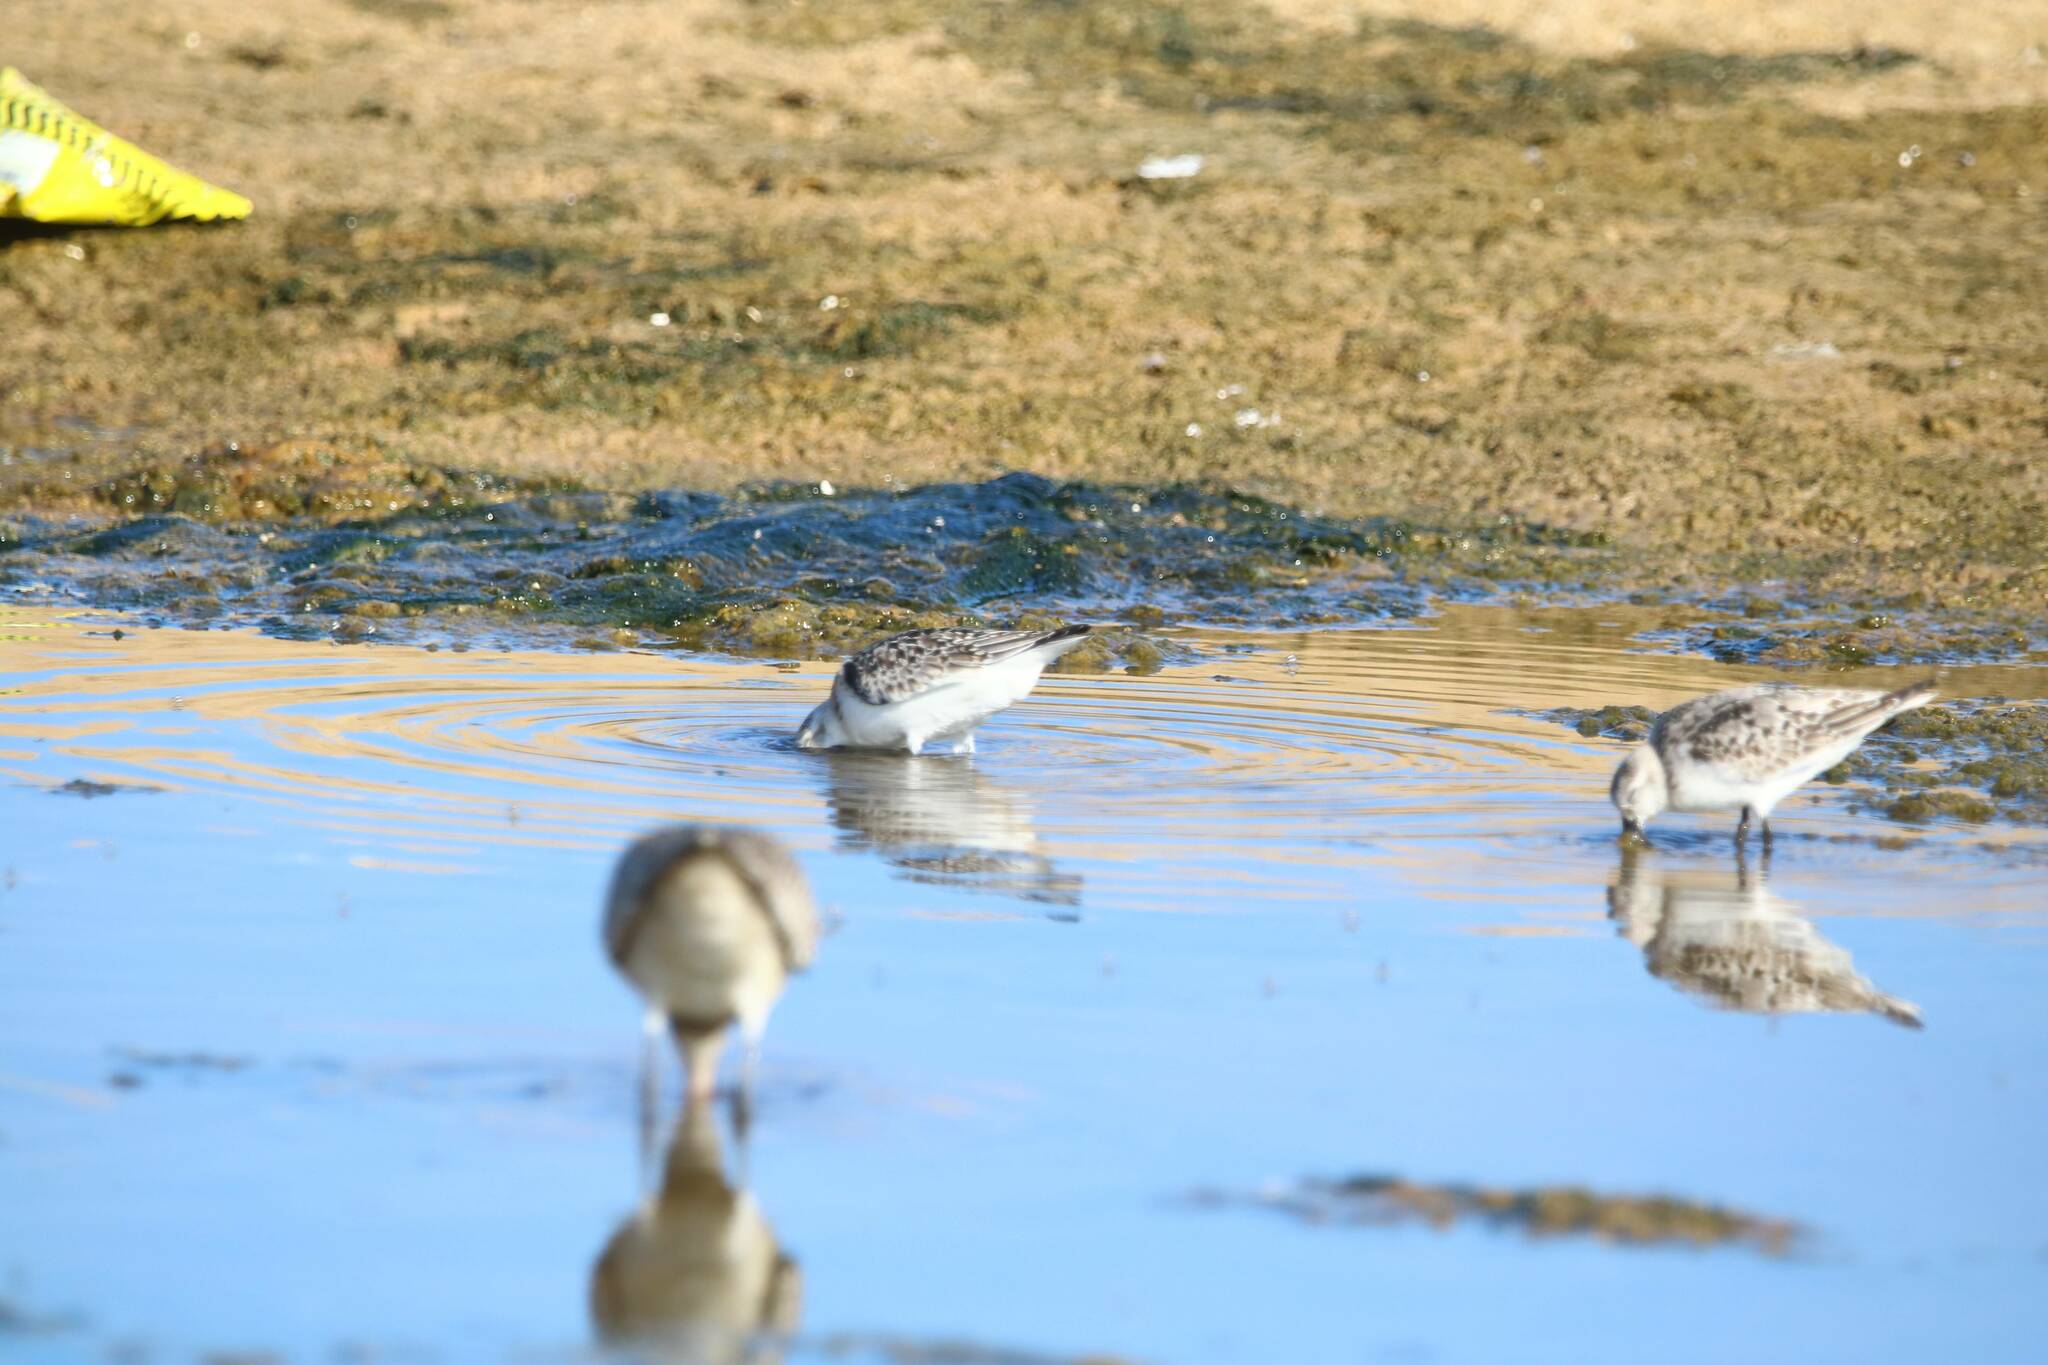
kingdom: Animalia
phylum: Chordata
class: Aves
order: Charadriiformes
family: Scolopacidae
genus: Calidris
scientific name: Calidris alba
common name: Sanderling
